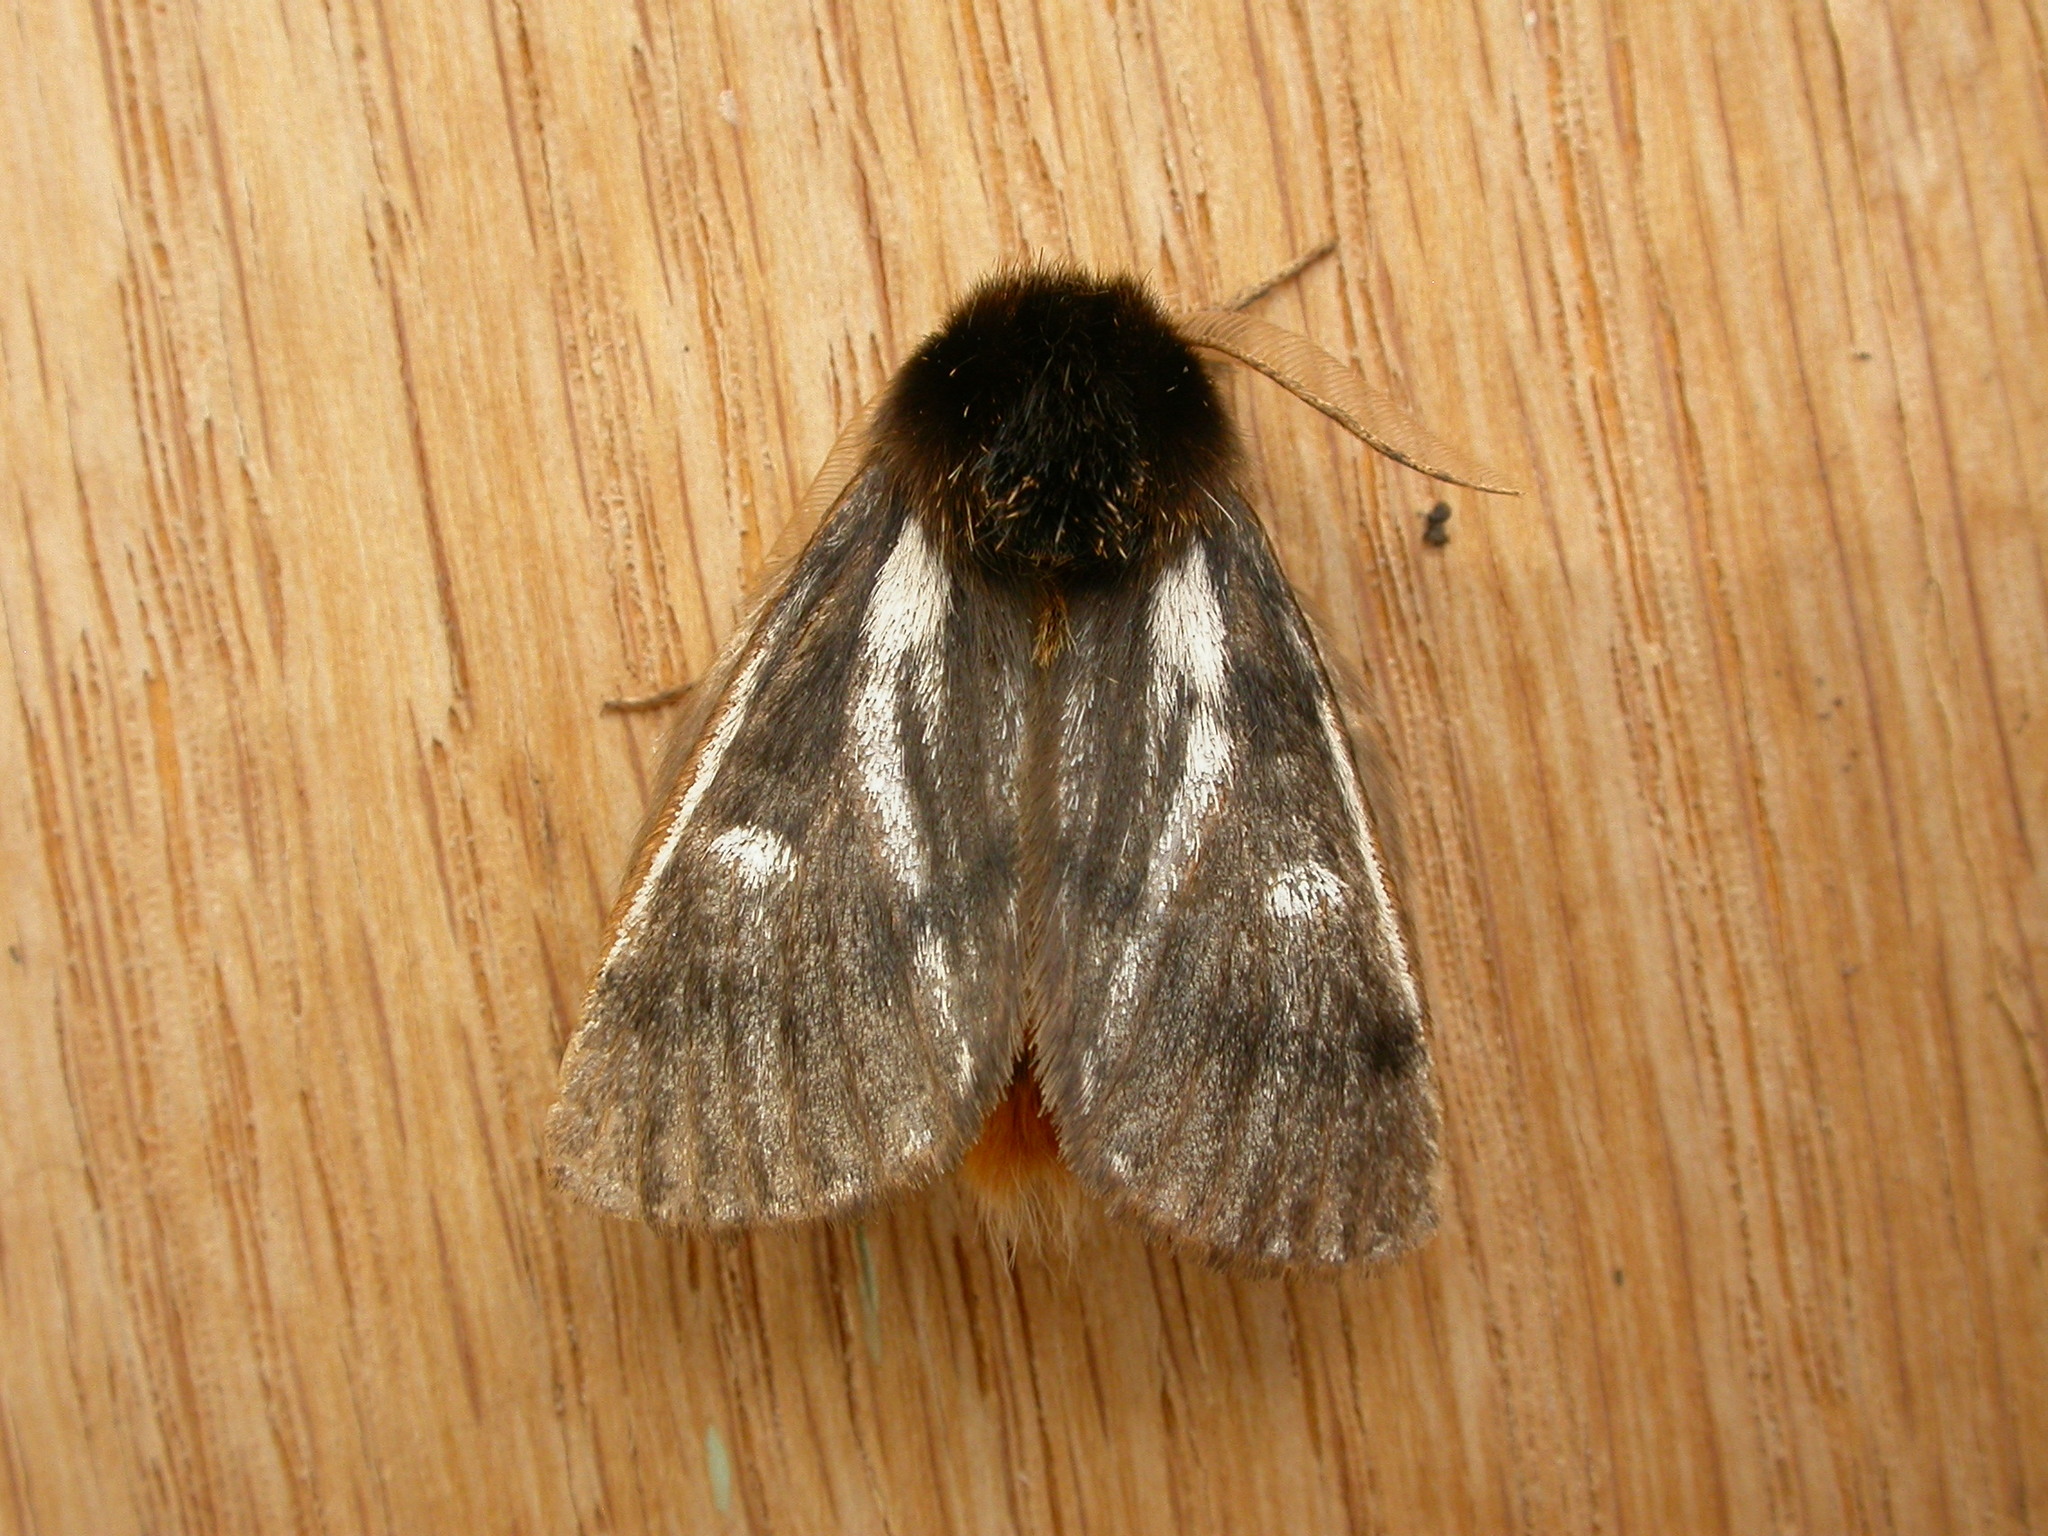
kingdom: Animalia
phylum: Arthropoda
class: Insecta
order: Lepidoptera
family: Notodontidae
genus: Ochrogaster
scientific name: Ochrogaster lunifer
